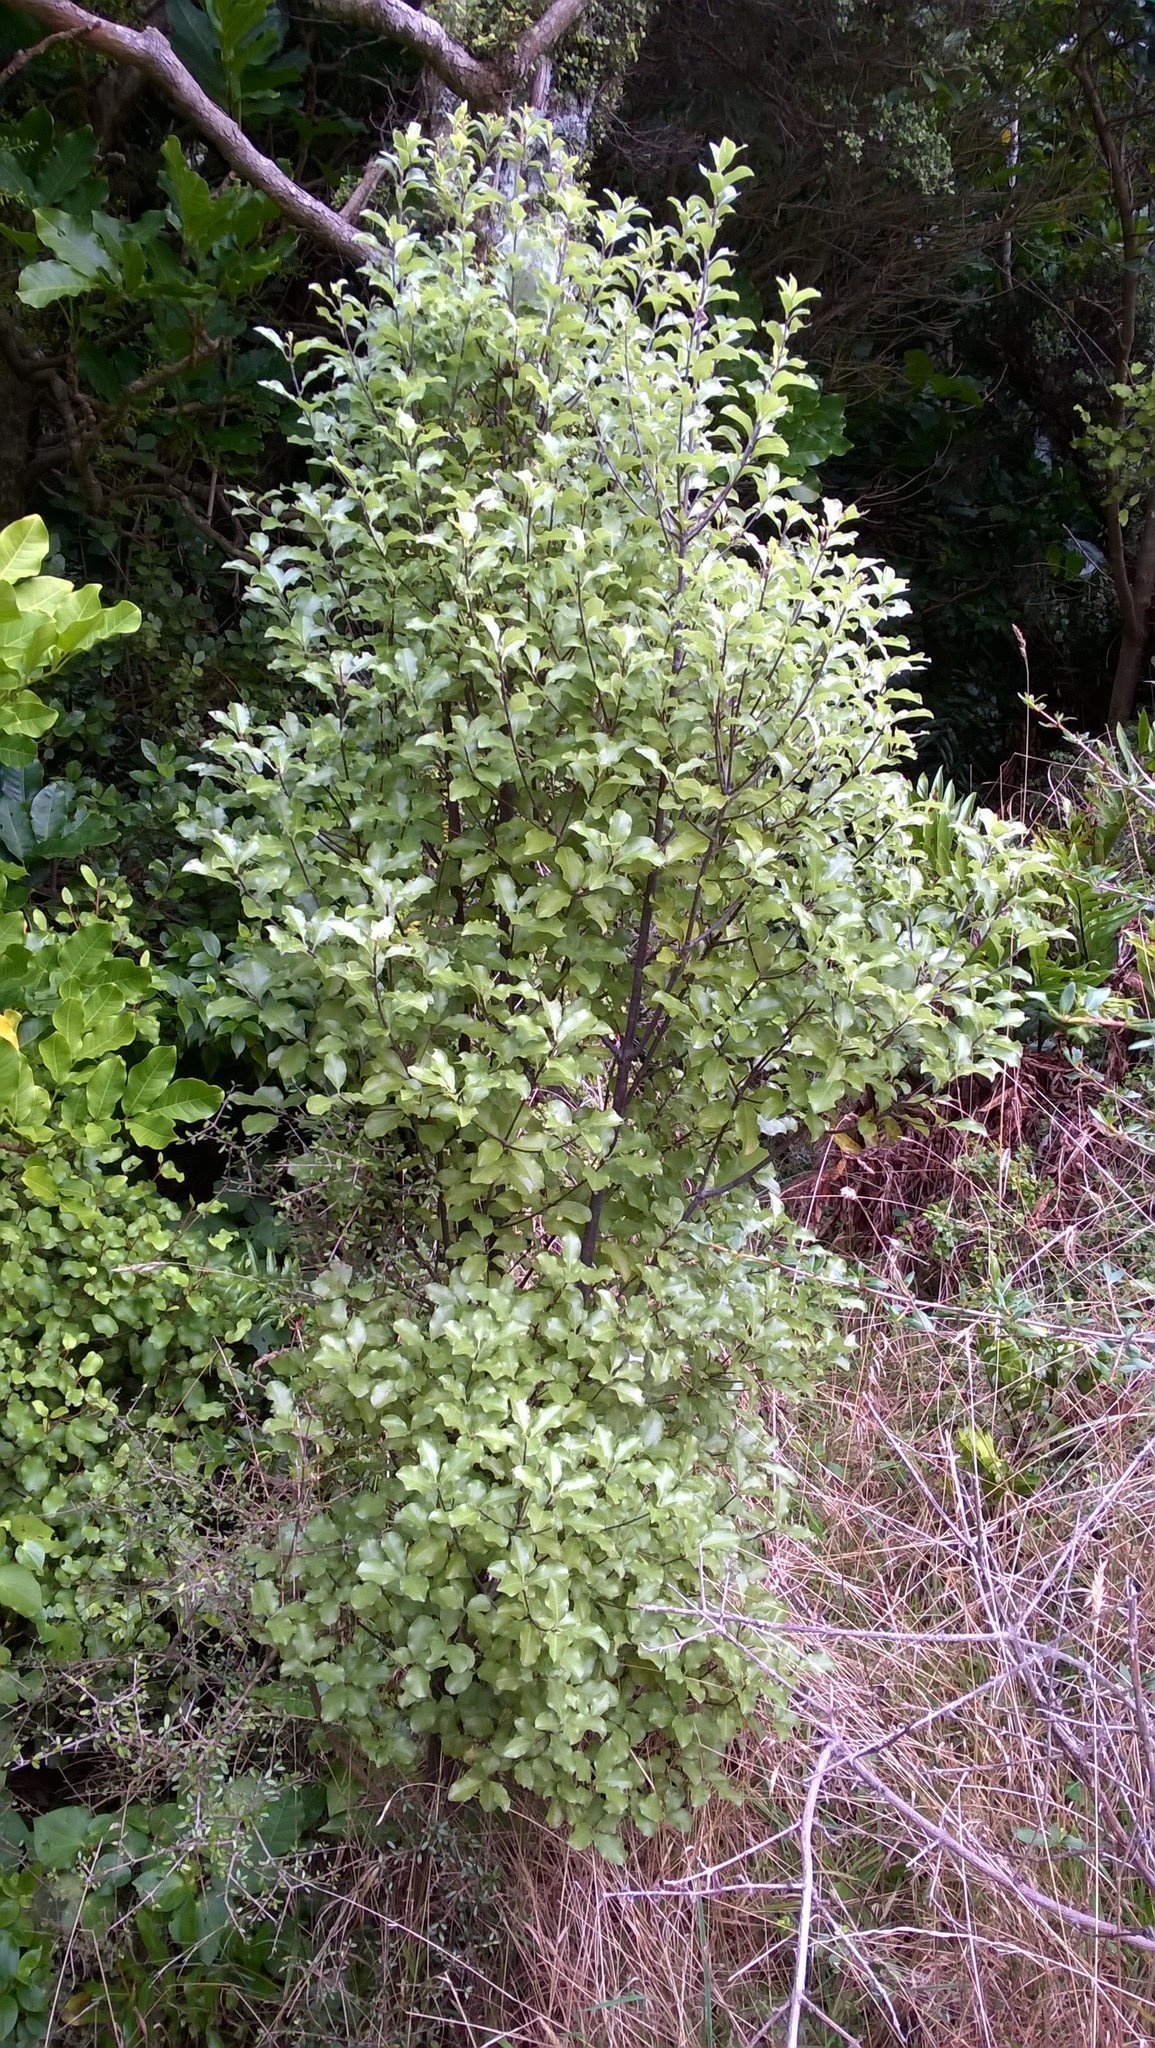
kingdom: Plantae
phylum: Tracheophyta
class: Magnoliopsida
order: Apiales
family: Pittosporaceae
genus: Pittosporum
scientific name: Pittosporum tenuifolium
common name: Kohuhu
